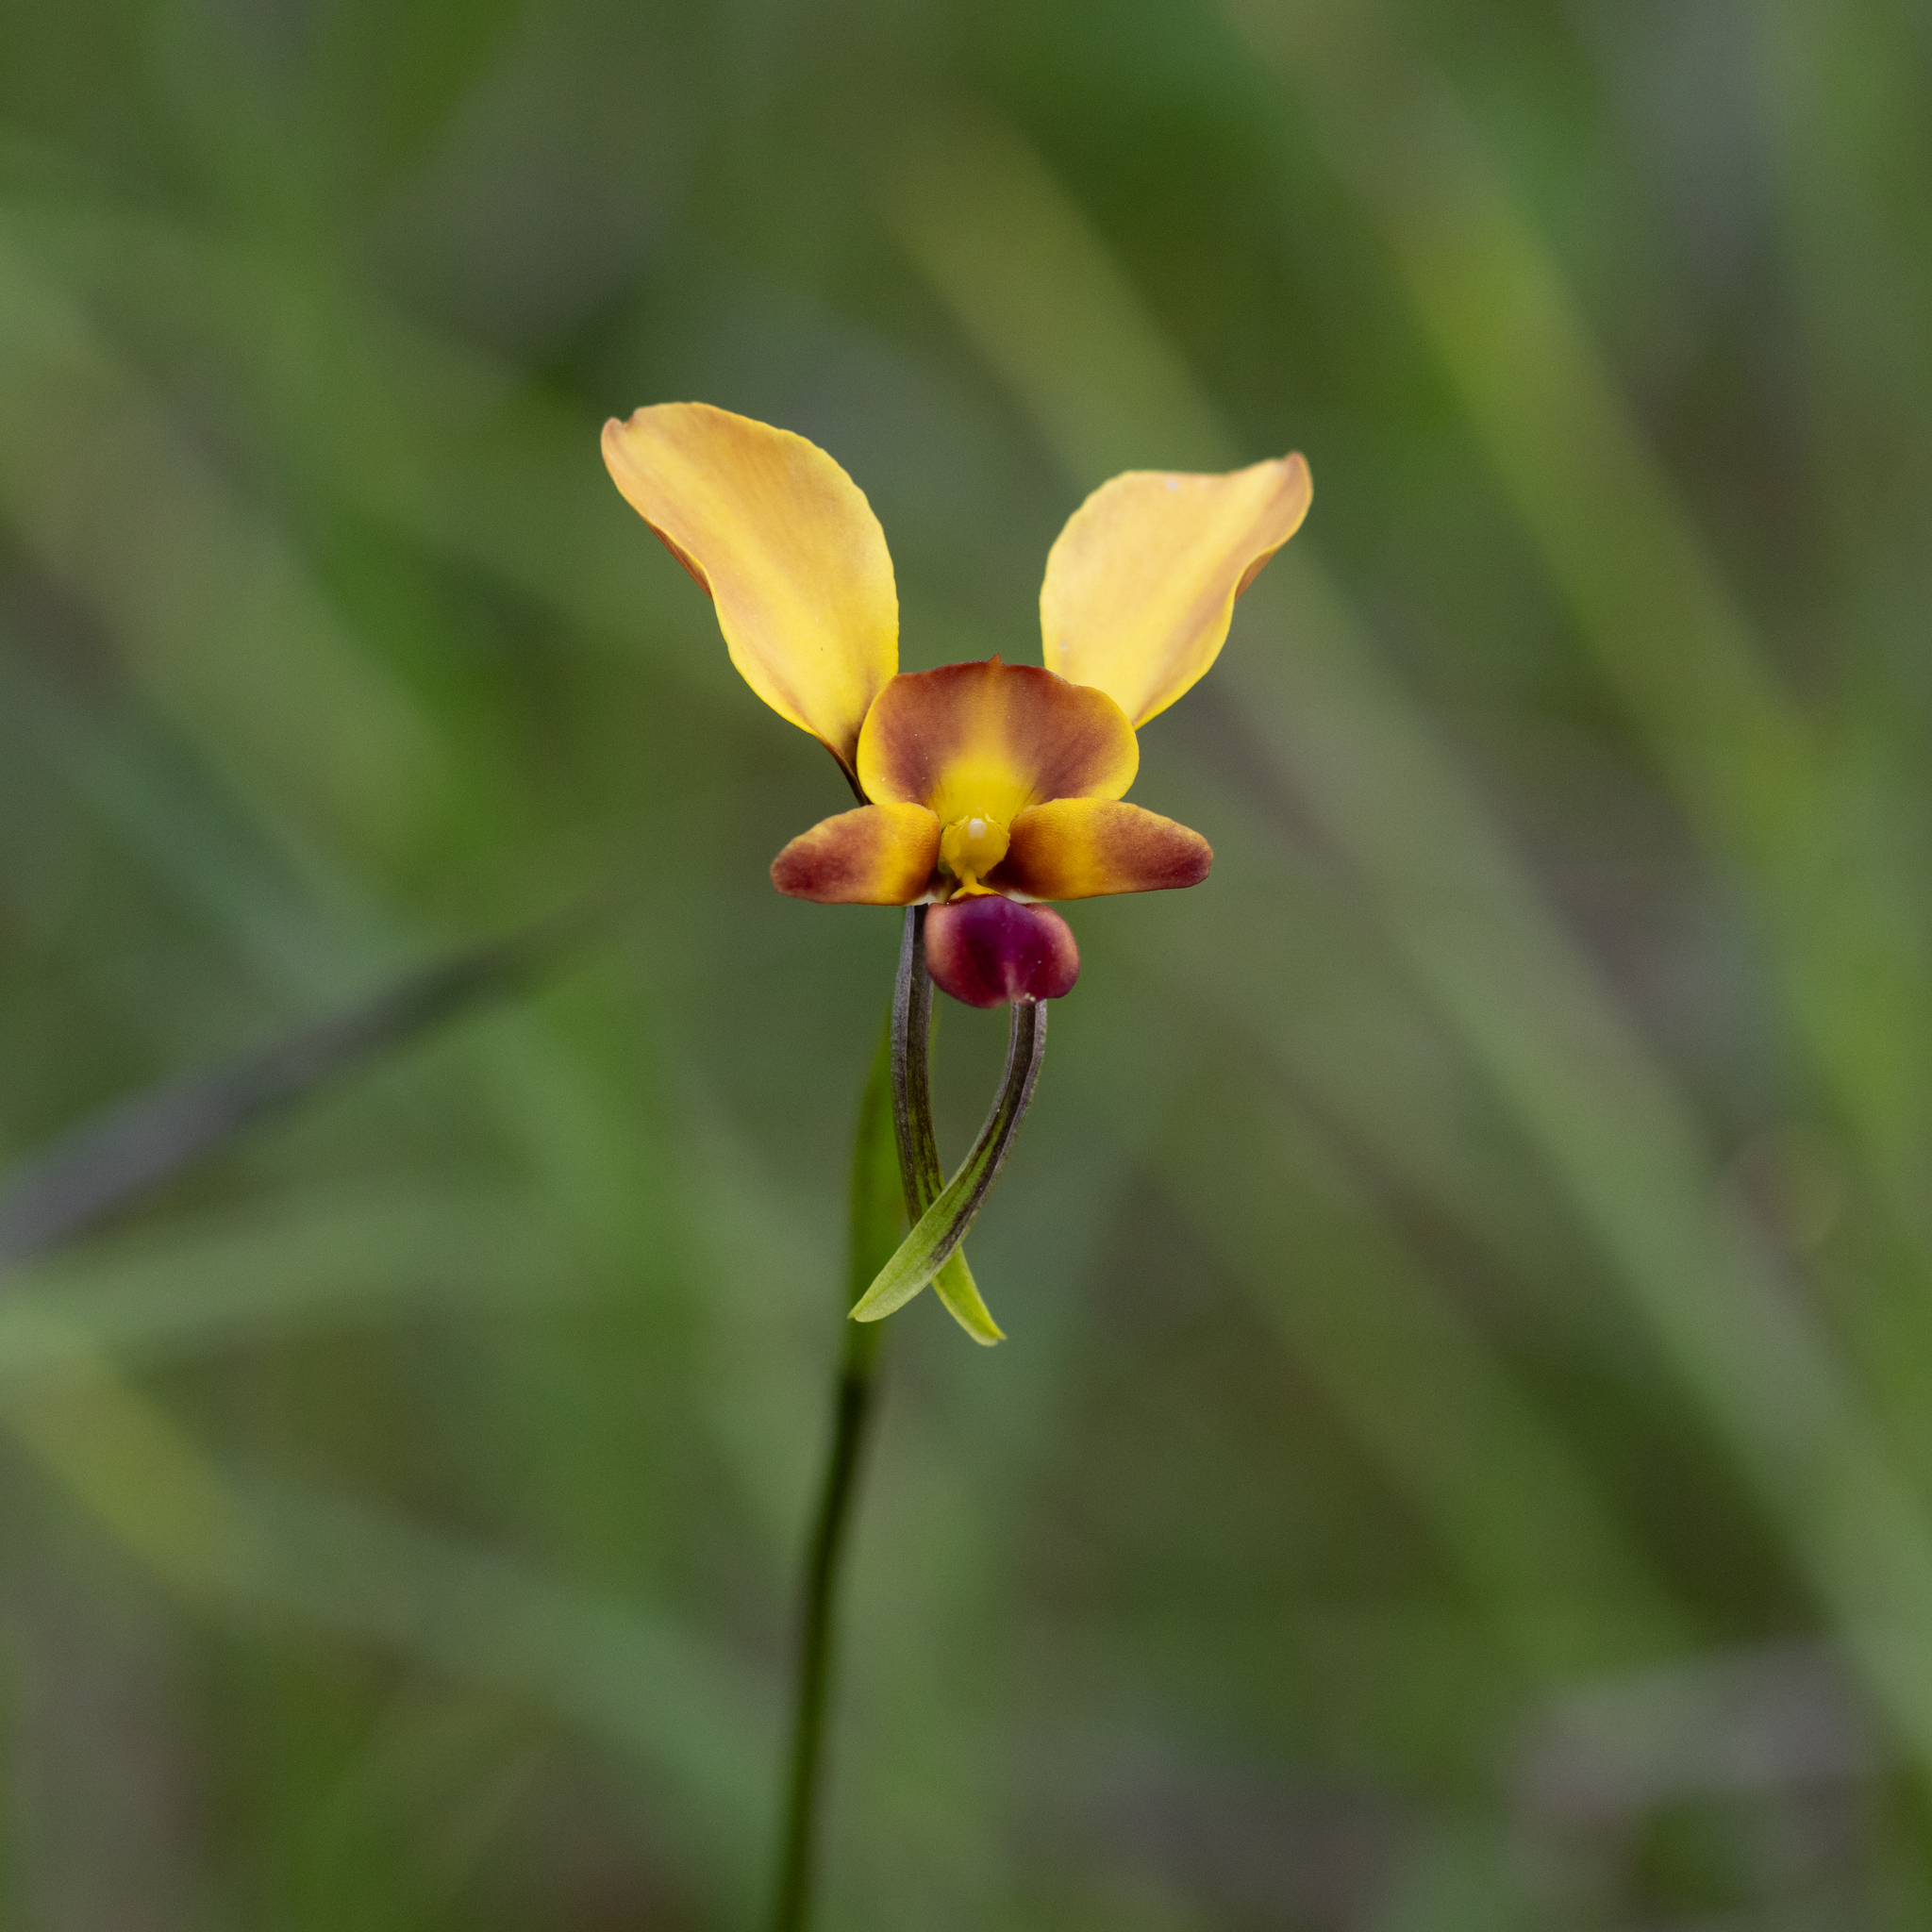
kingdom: Plantae
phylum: Tracheophyta
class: Liliopsida
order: Asparagales
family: Orchidaceae
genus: Diuris
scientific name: Diuris orientis
